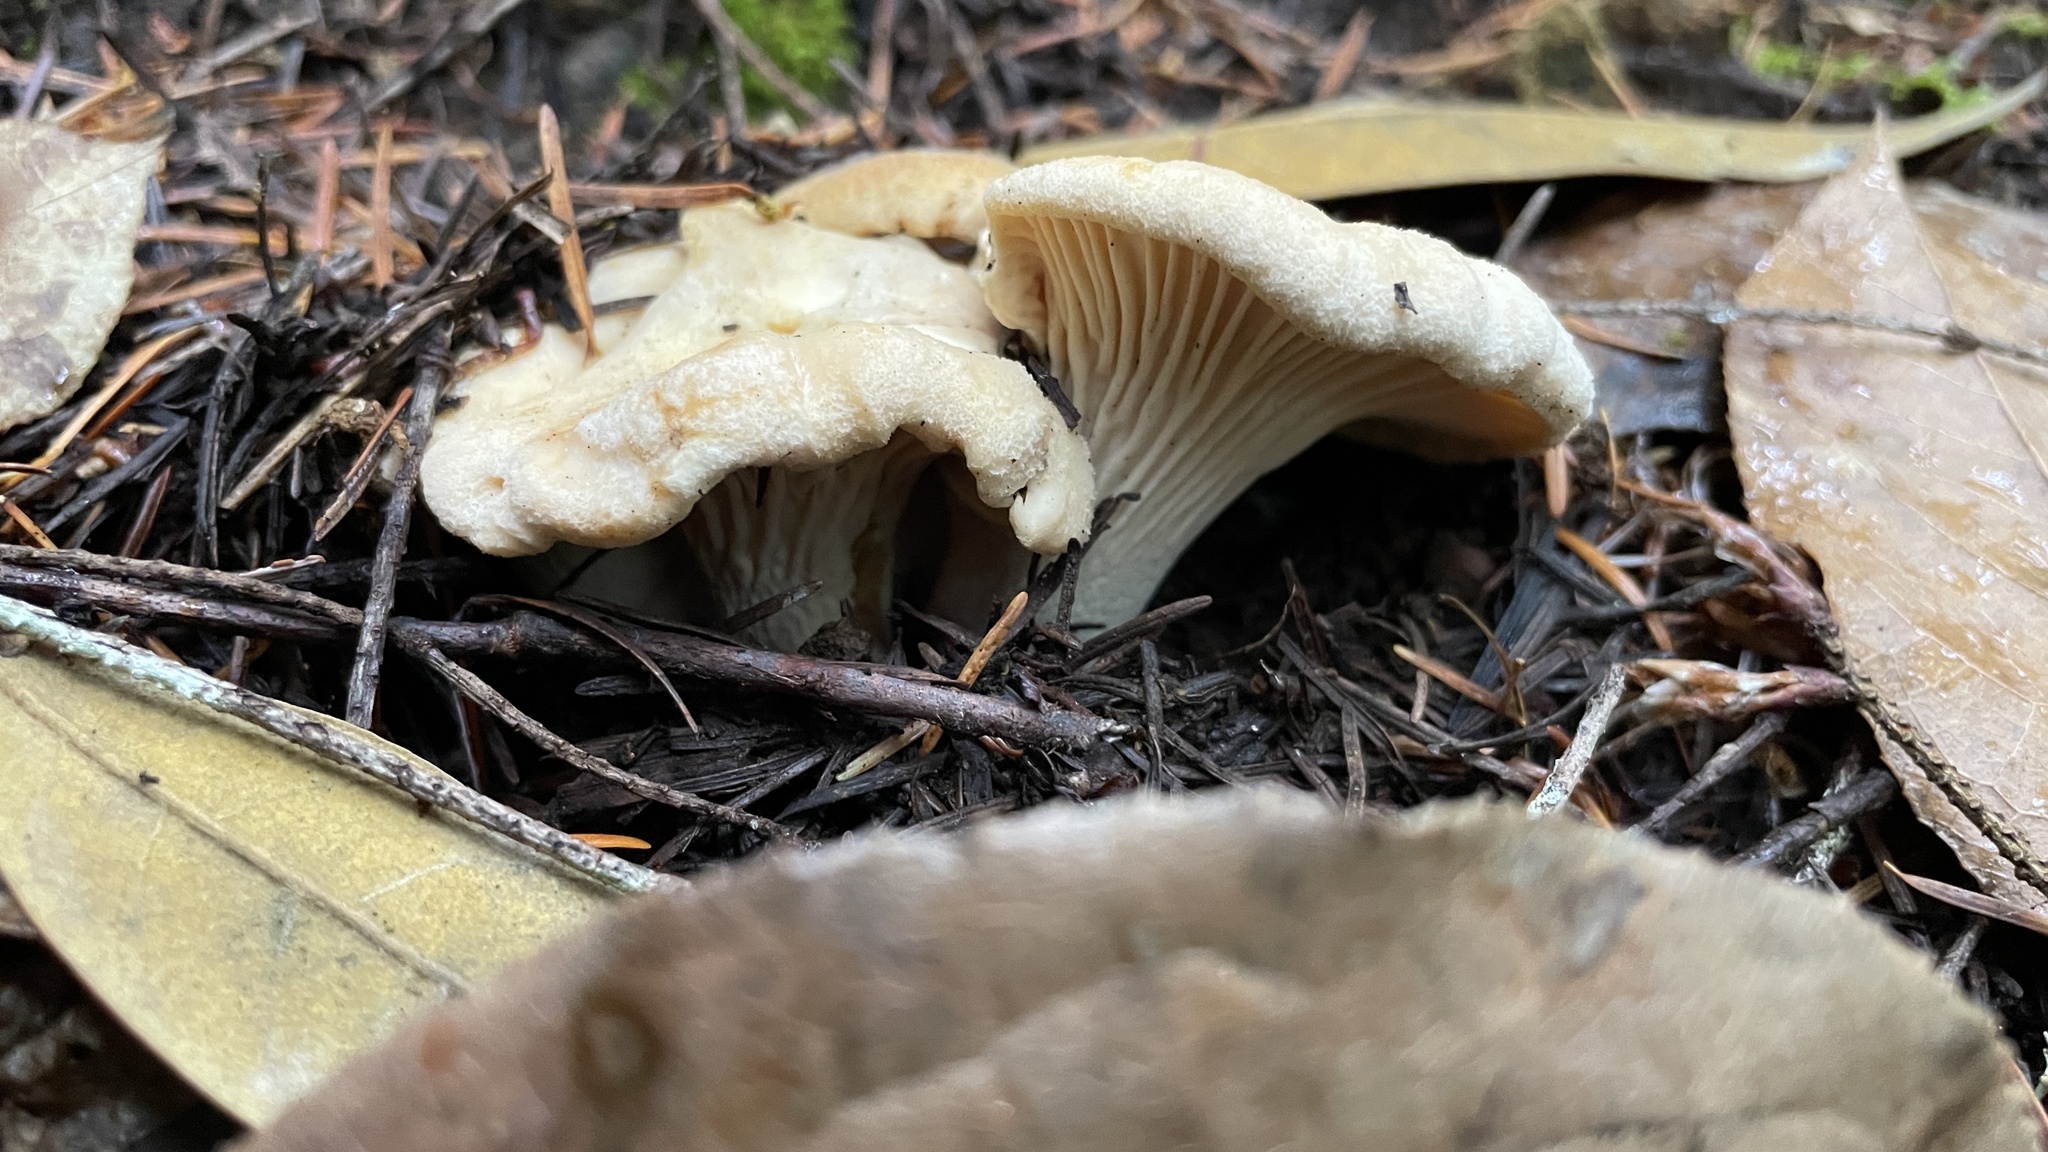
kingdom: Fungi
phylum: Basidiomycota
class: Agaricomycetes
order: Cantharellales
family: Hydnaceae
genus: Cantharellus
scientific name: Cantharellus subalbidus
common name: White chanterelle
